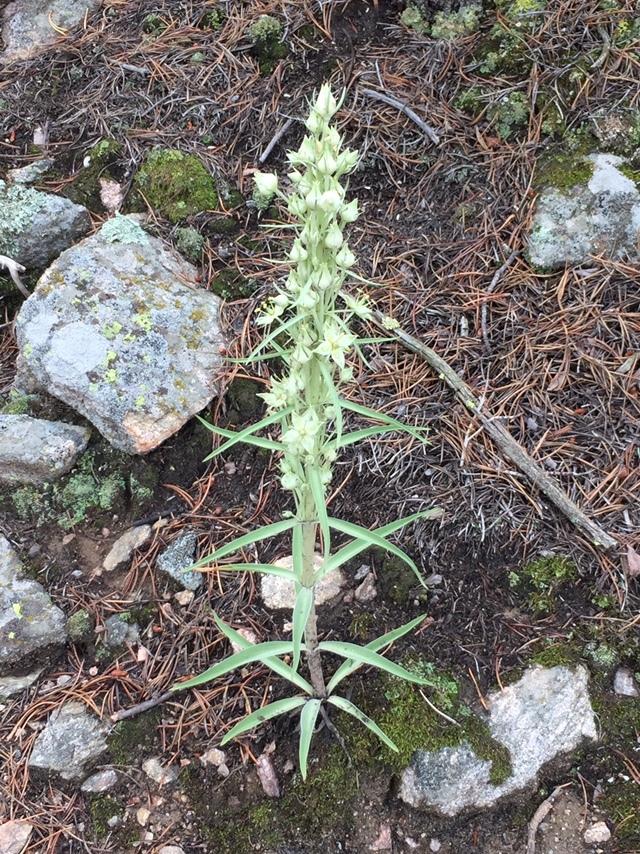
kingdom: Plantae
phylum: Tracheophyta
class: Magnoliopsida
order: Gentianales
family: Gentianaceae
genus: Frasera
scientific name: Frasera speciosa
